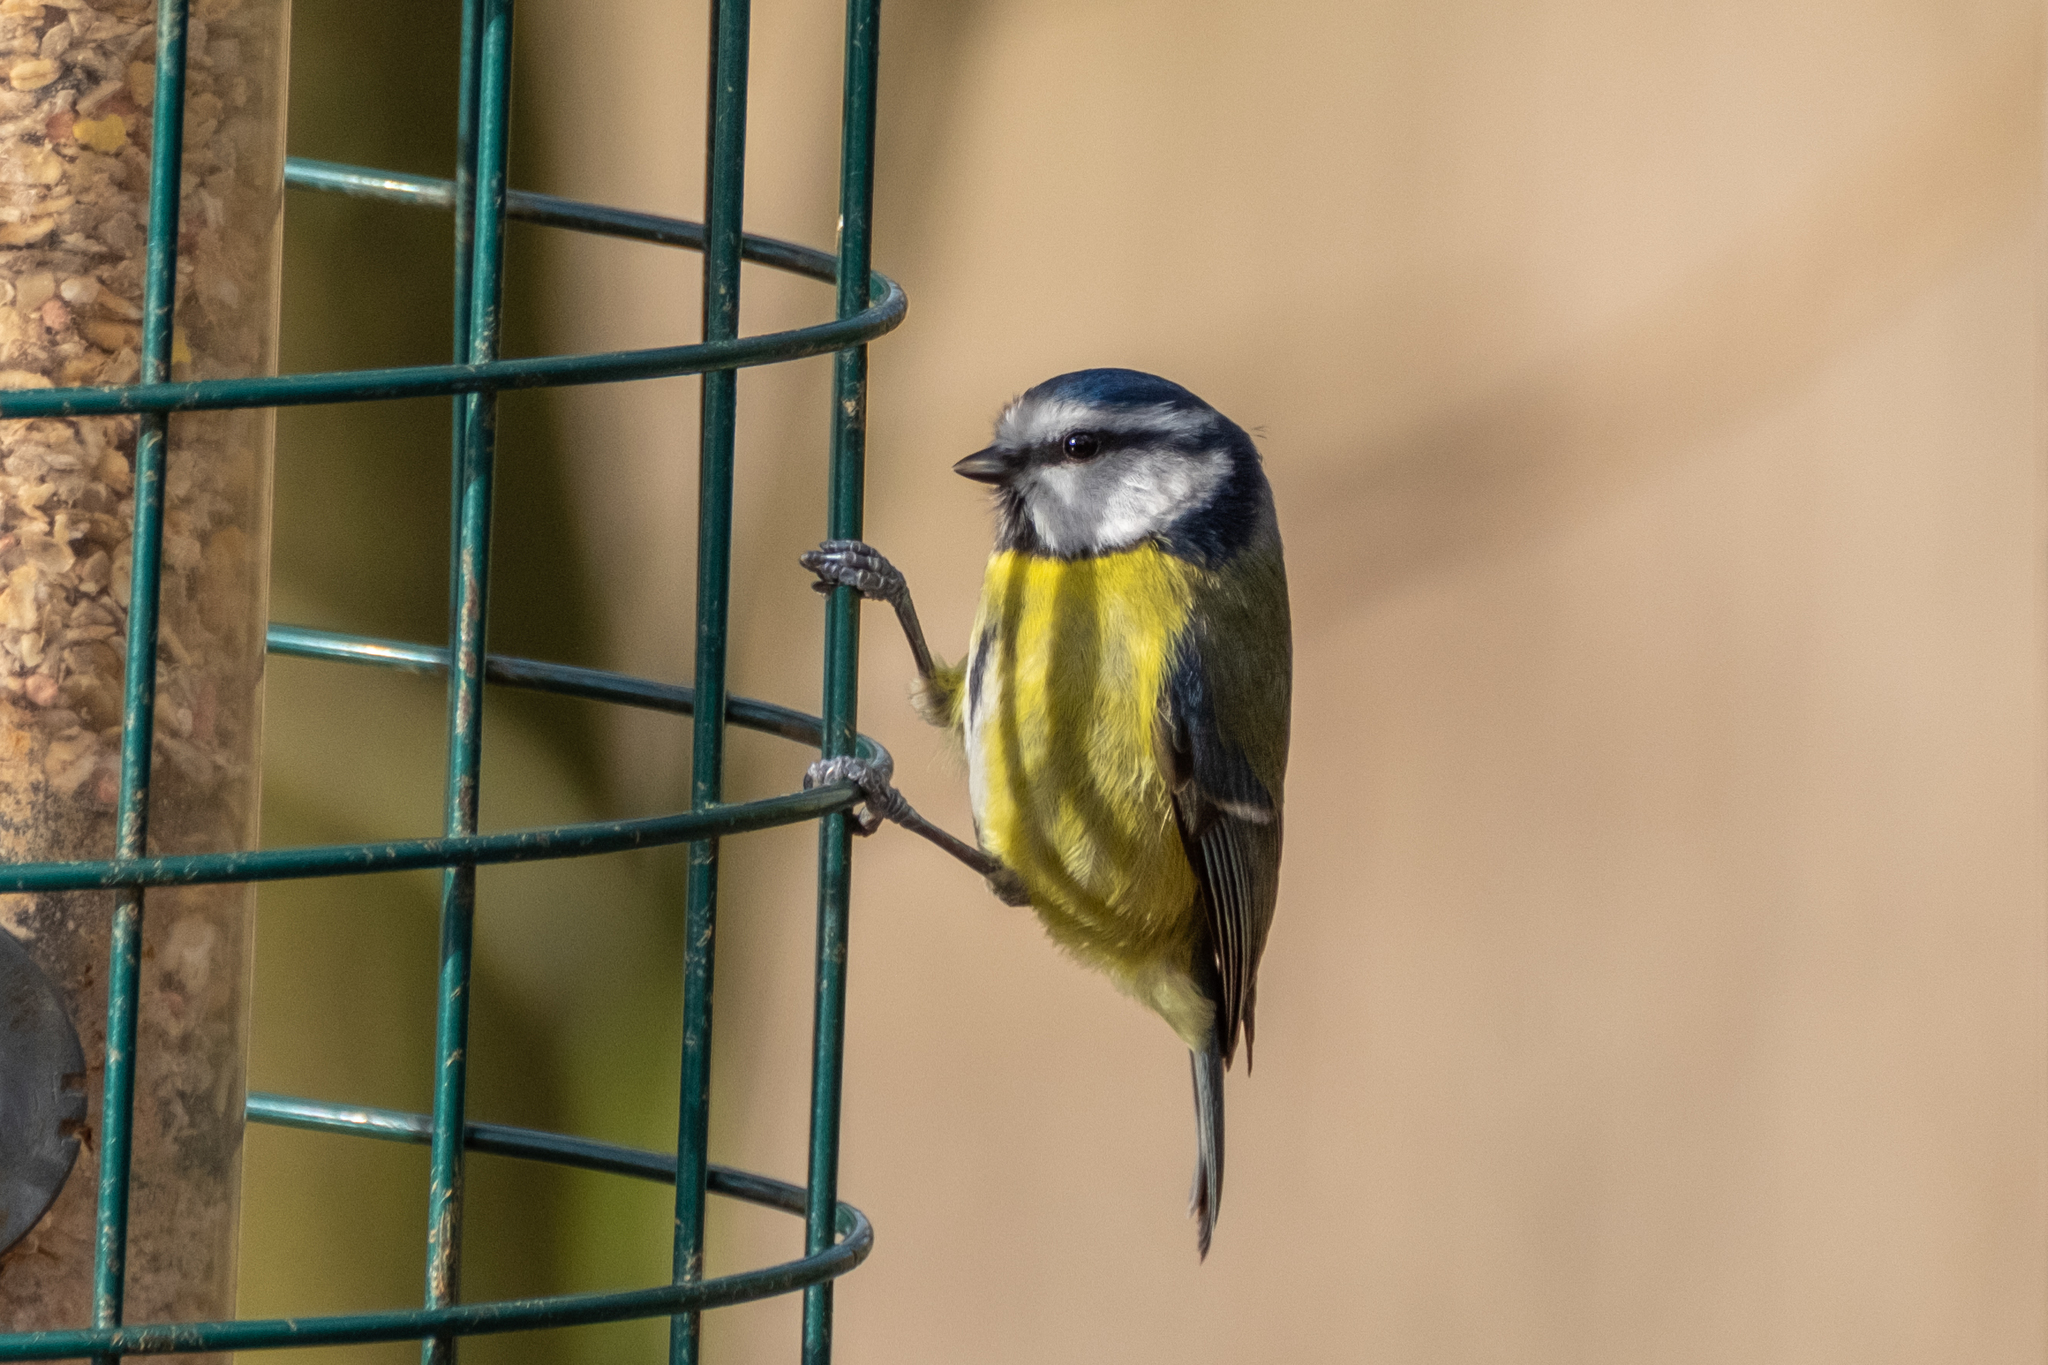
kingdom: Animalia
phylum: Chordata
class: Aves
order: Passeriformes
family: Paridae
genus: Cyanistes
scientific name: Cyanistes caeruleus
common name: Eurasian blue tit
